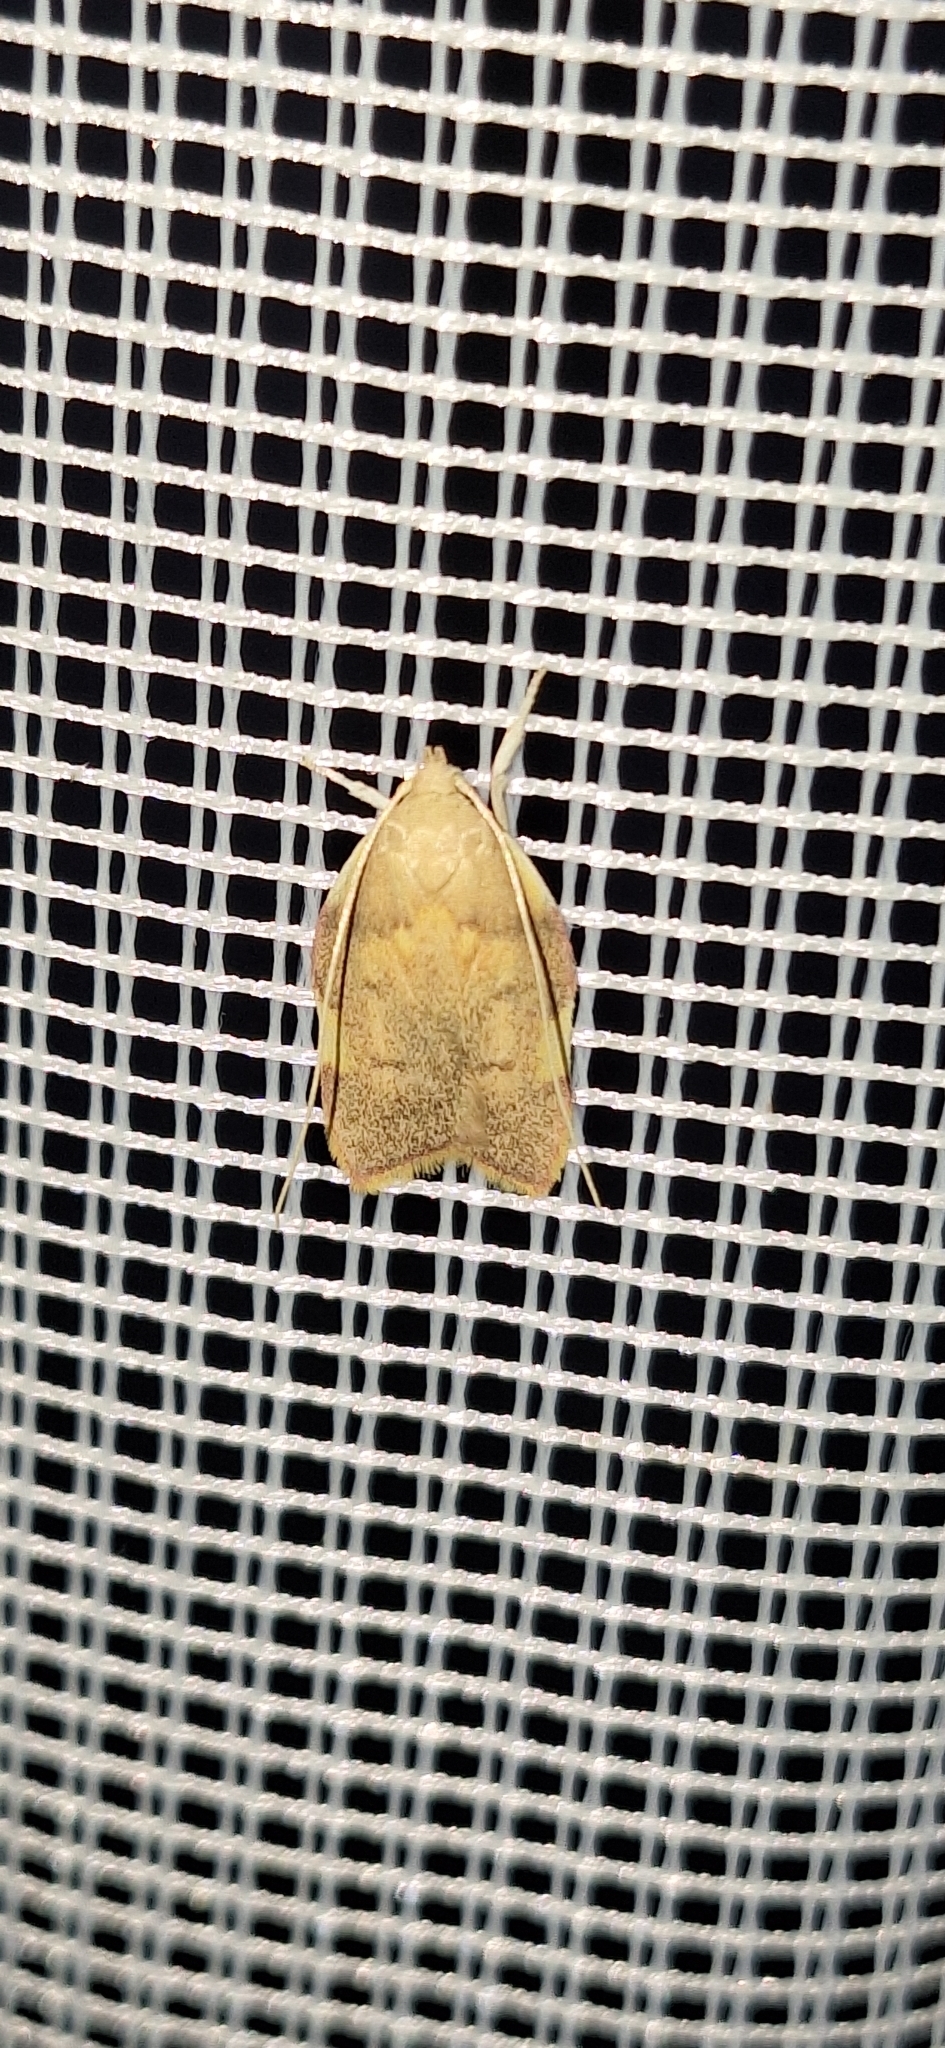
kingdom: Animalia
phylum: Arthropoda
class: Insecta
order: Lepidoptera
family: Peleopodidae
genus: Carcina
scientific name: Carcina quercana
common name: Moth
